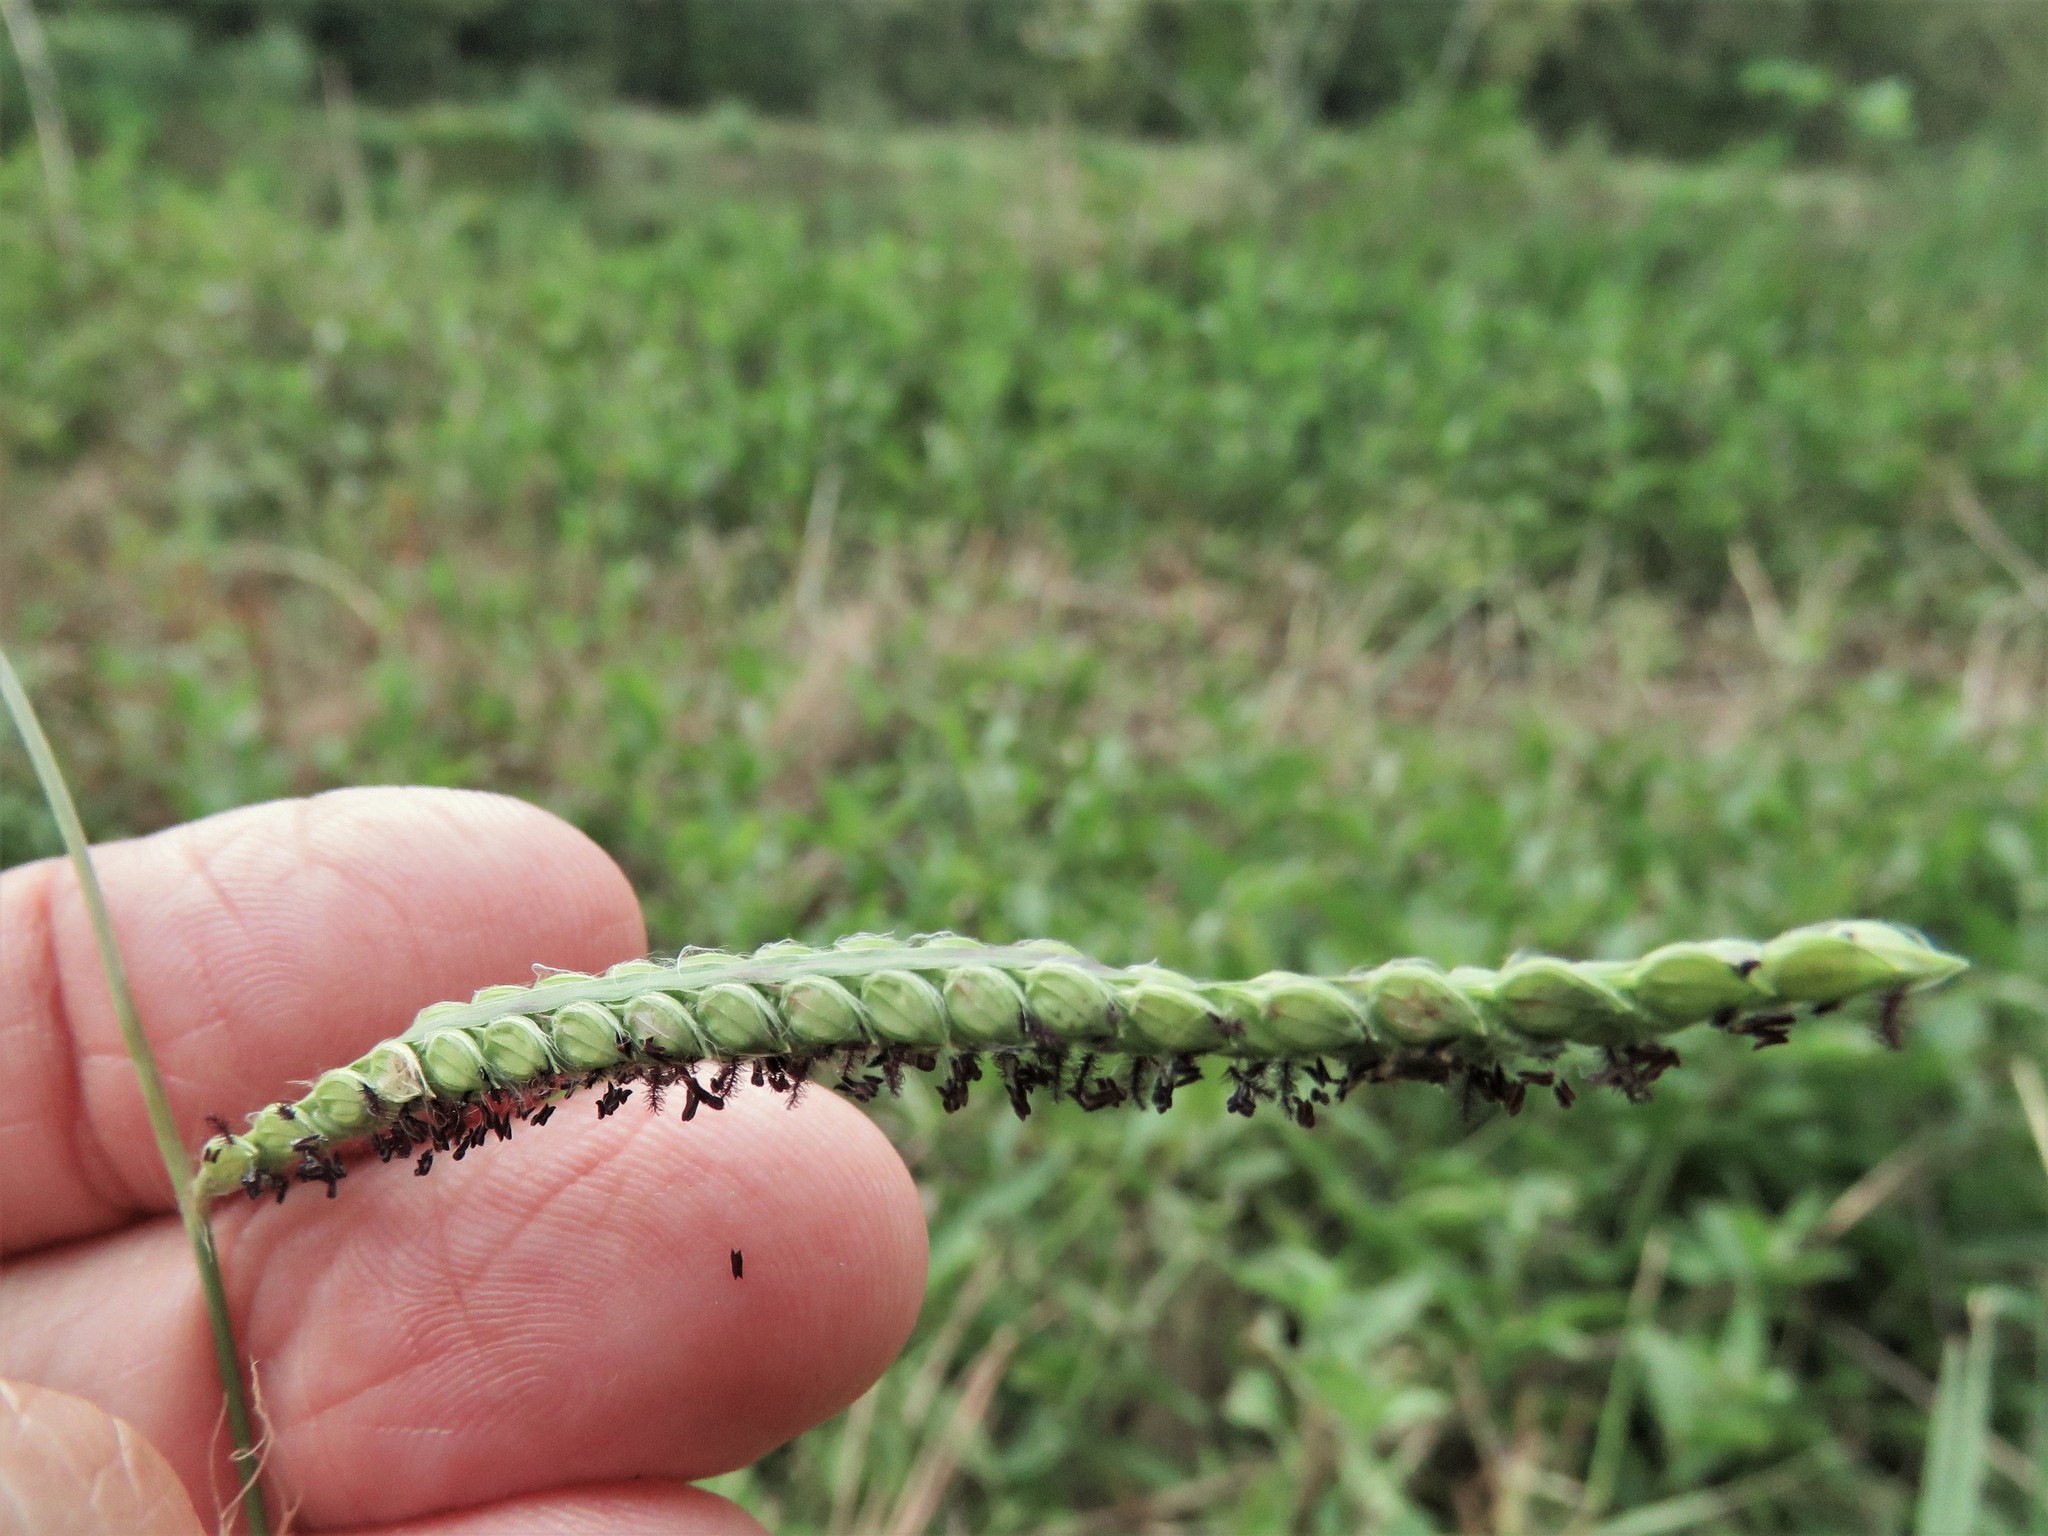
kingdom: Plantae
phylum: Tracheophyta
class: Liliopsida
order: Poales
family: Poaceae
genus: Paspalum
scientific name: Paspalum dilatatum
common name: Dallisgrass
